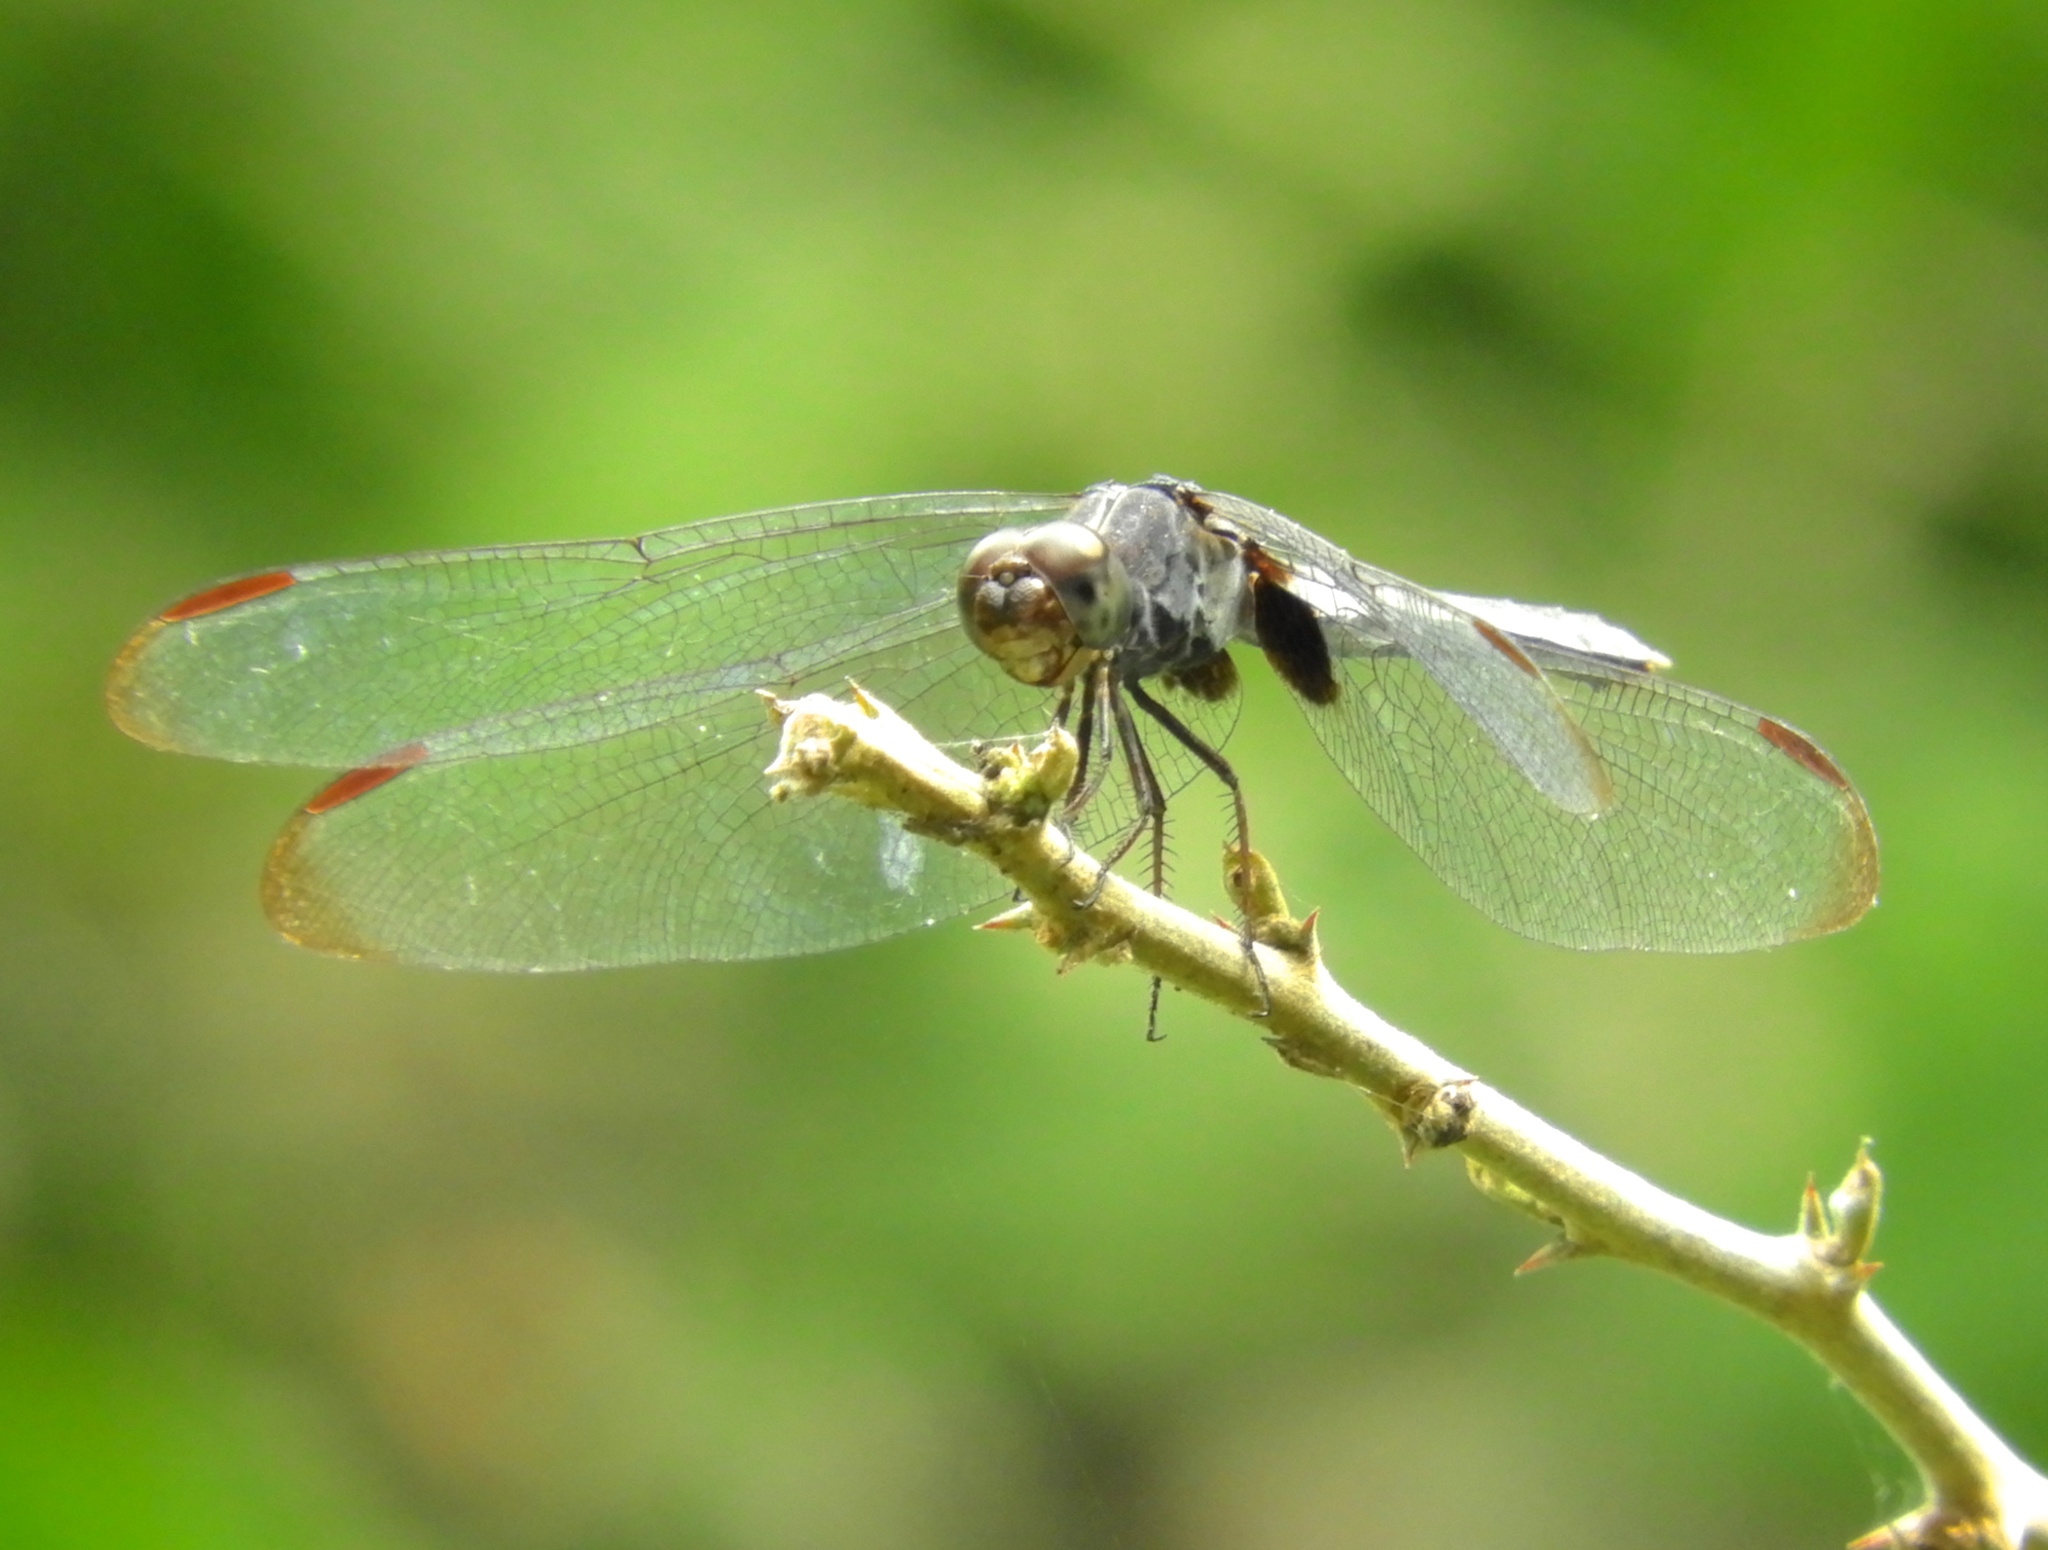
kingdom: Animalia
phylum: Arthropoda
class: Insecta
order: Odonata
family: Libellulidae
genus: Erythrodiplax
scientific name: Erythrodiplax funerea
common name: Black-winged dragonlet
